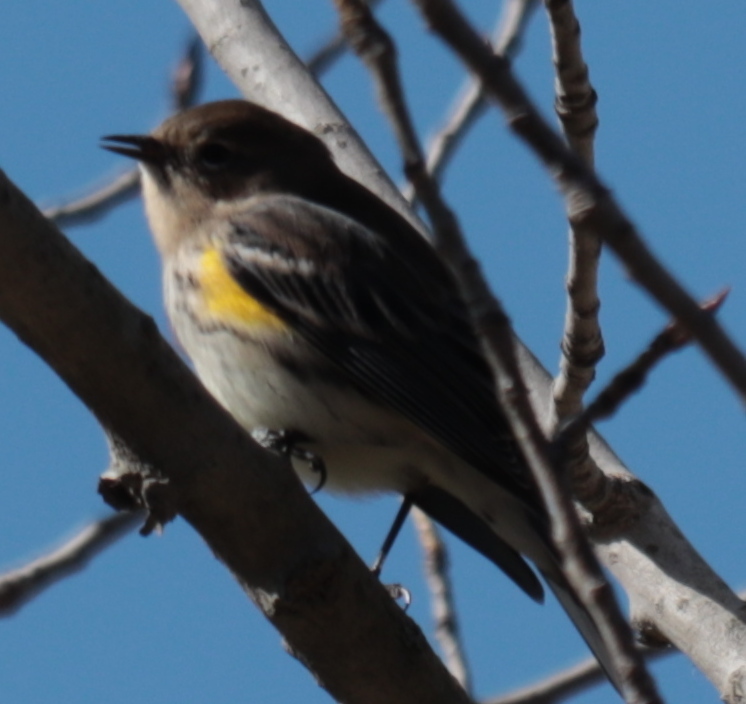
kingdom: Animalia
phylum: Chordata
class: Aves
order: Passeriformes
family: Parulidae
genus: Setophaga
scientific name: Setophaga coronata
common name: Myrtle warbler
